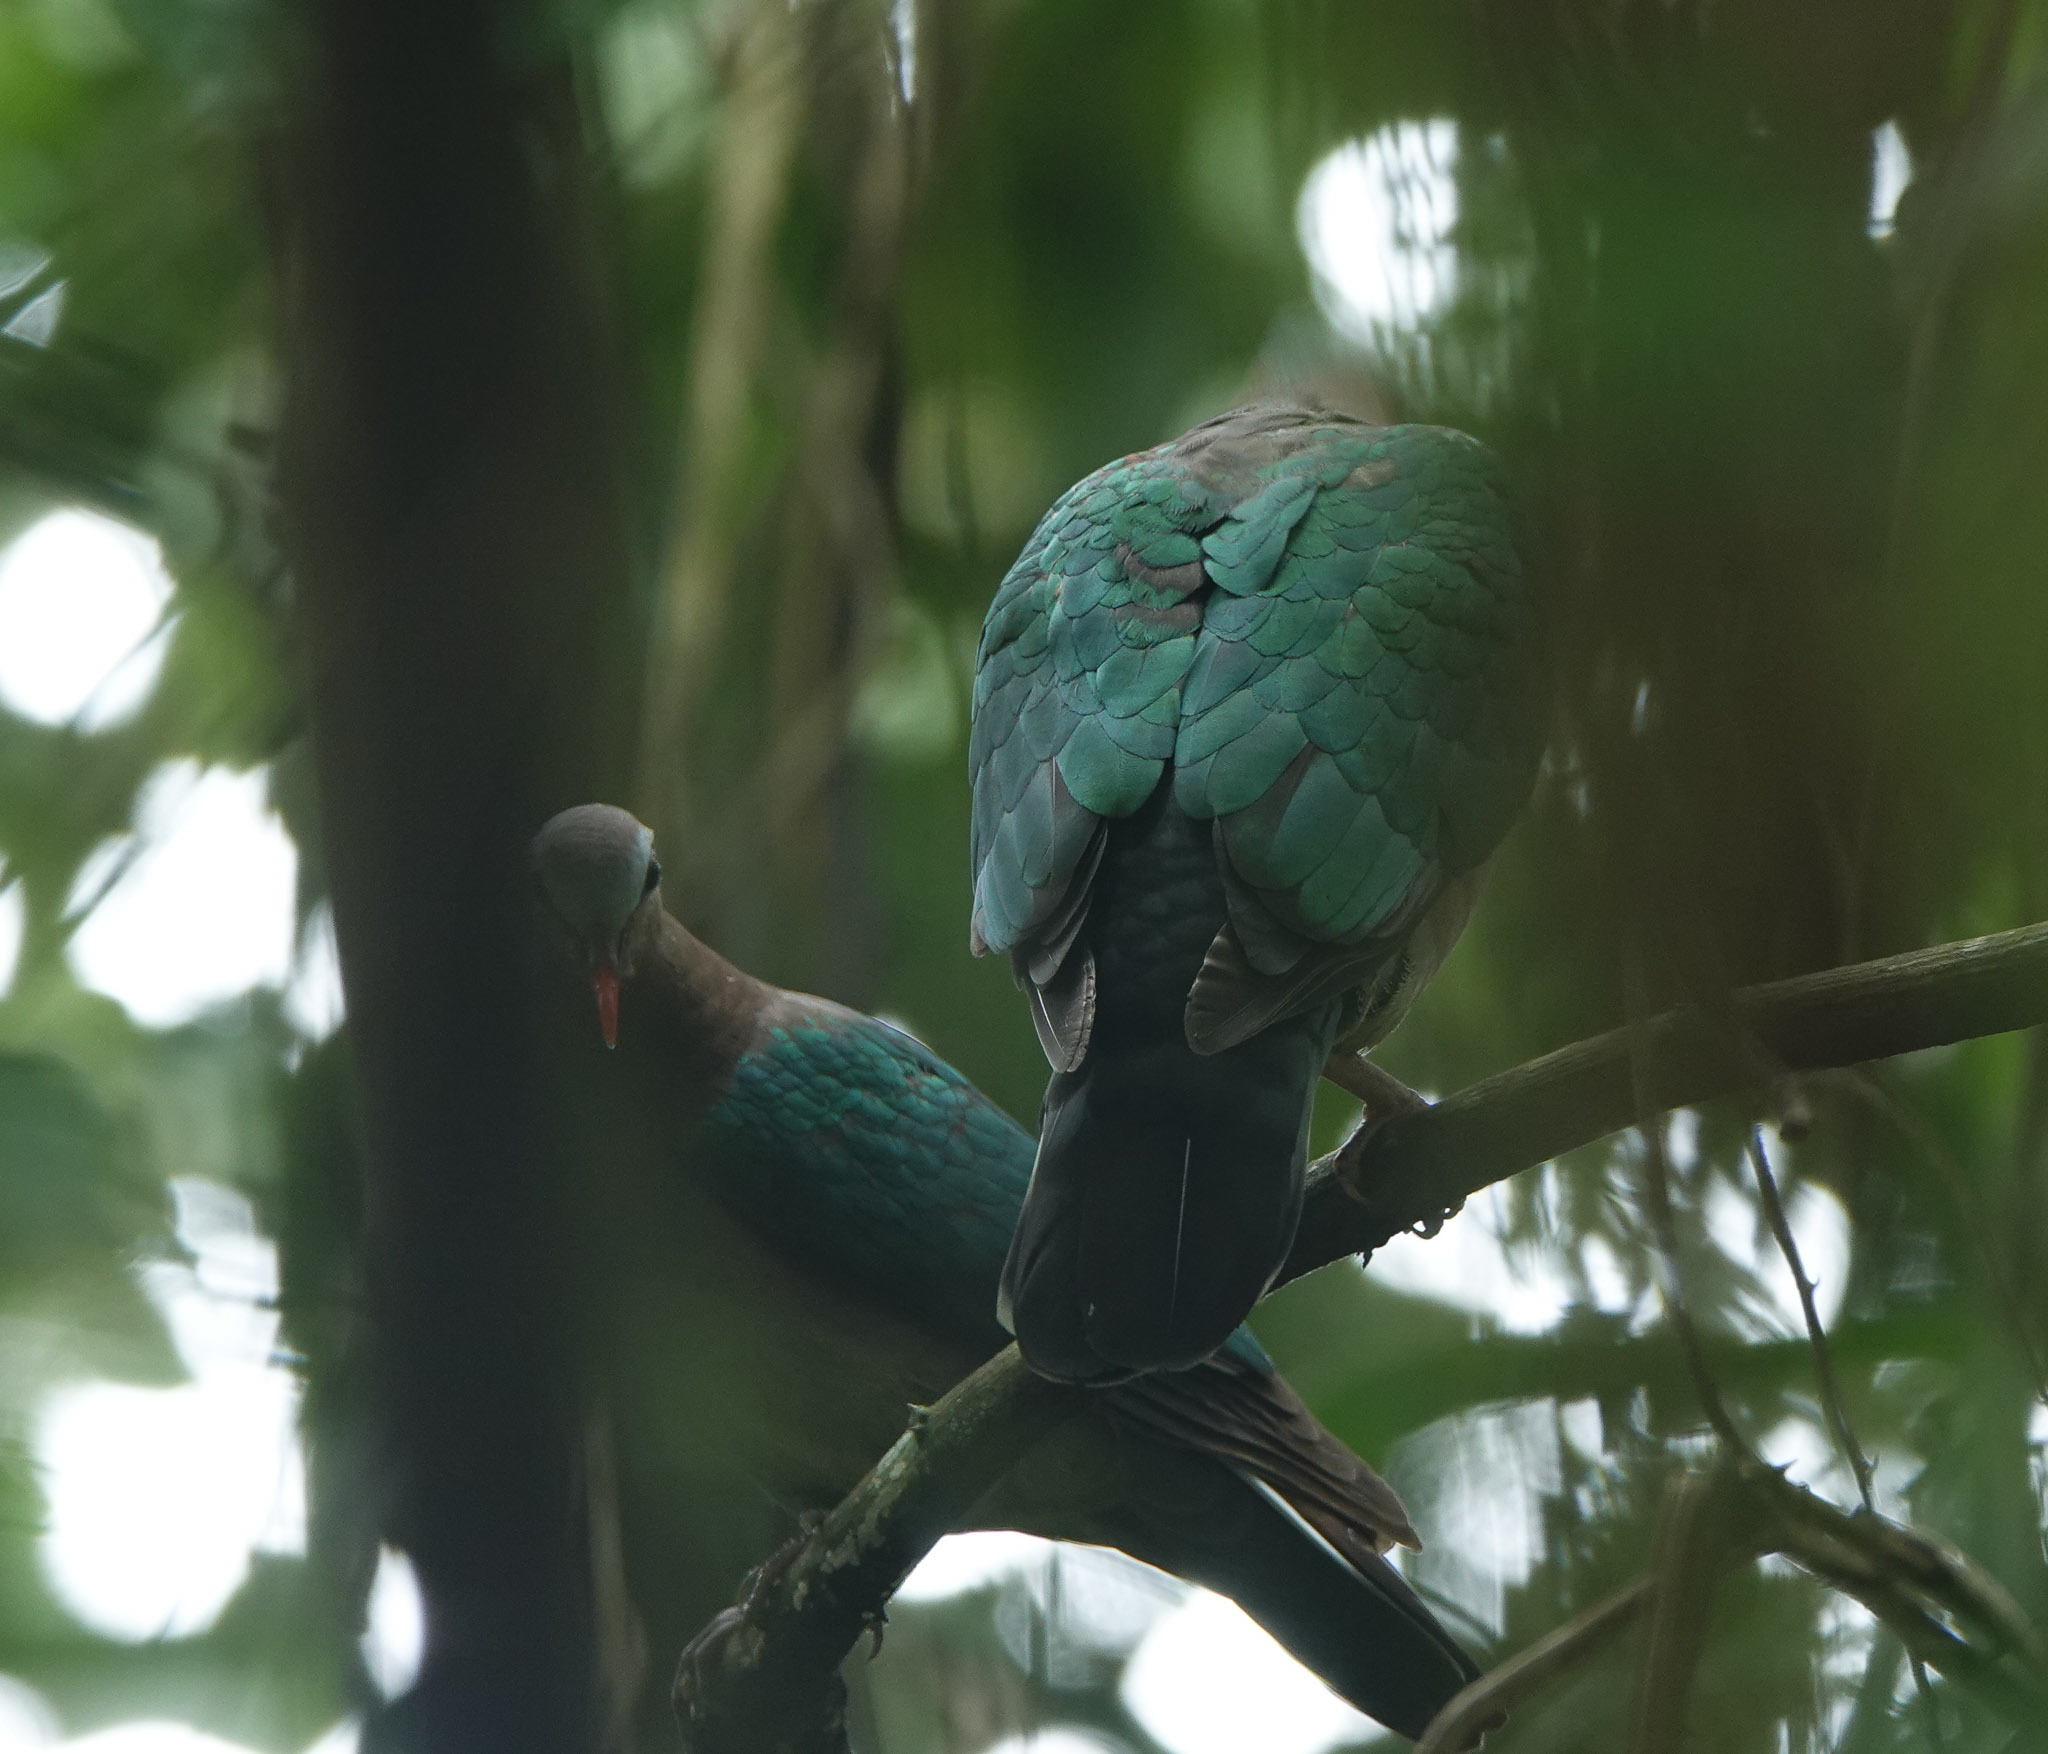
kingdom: Animalia
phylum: Chordata
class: Aves
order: Columbiformes
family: Columbidae
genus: Chalcophaps
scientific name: Chalcophaps indica
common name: Common emerald dove
